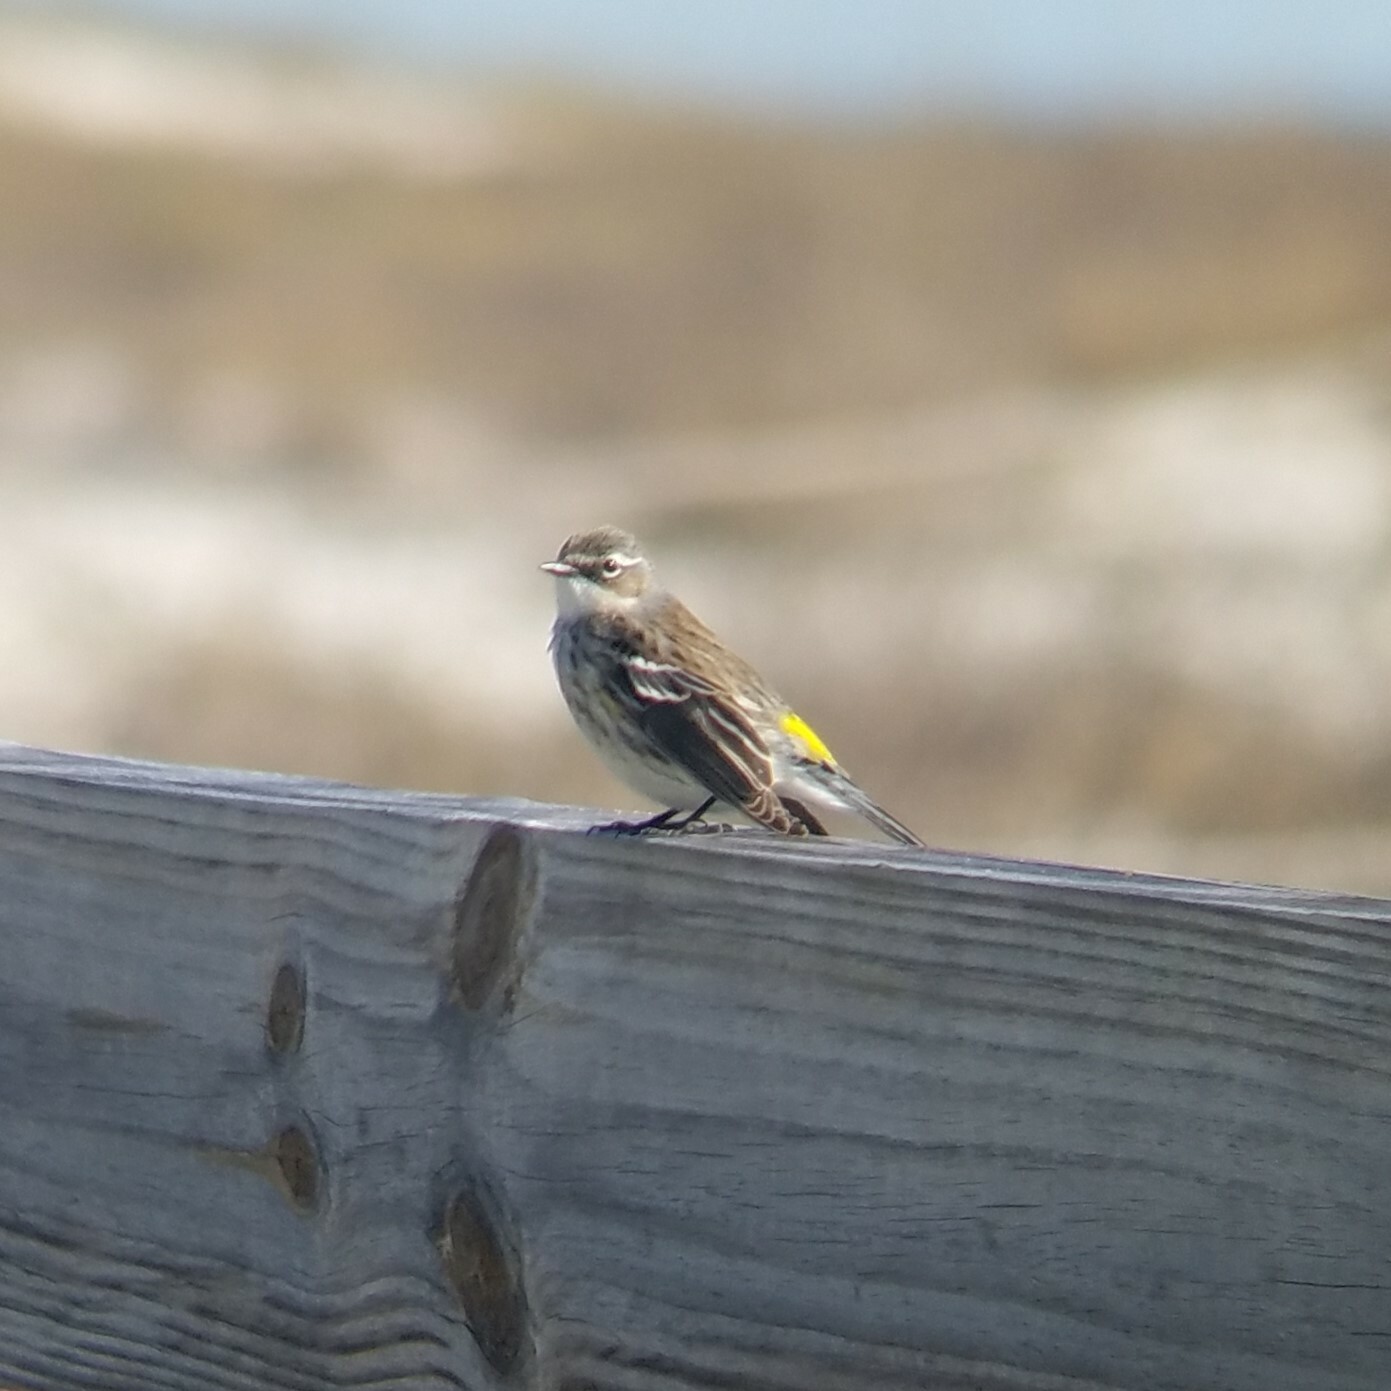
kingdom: Animalia
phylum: Chordata
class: Aves
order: Passeriformes
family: Parulidae
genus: Setophaga
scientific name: Setophaga coronata
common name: Myrtle warbler
